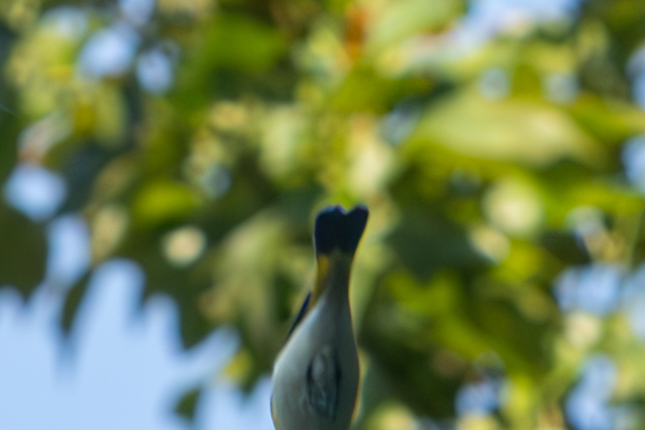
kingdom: Animalia
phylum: Chordata
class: Aves
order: Passeriformes
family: Parulidae
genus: Setophaga
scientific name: Setophaga ruticilla
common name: American redstart
